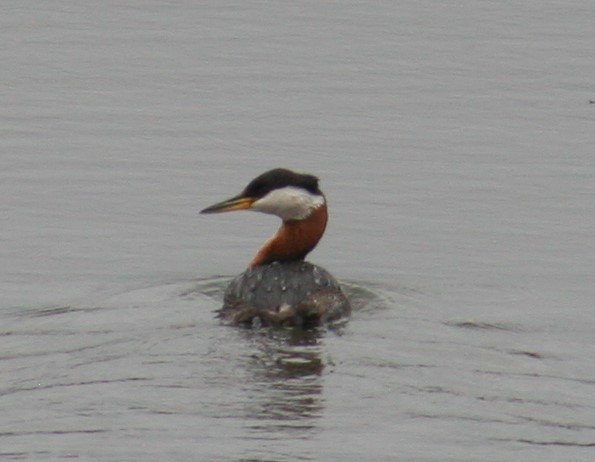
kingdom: Animalia
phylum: Chordata
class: Aves
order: Podicipediformes
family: Podicipedidae
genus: Podiceps
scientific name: Podiceps grisegena
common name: Red-necked grebe
